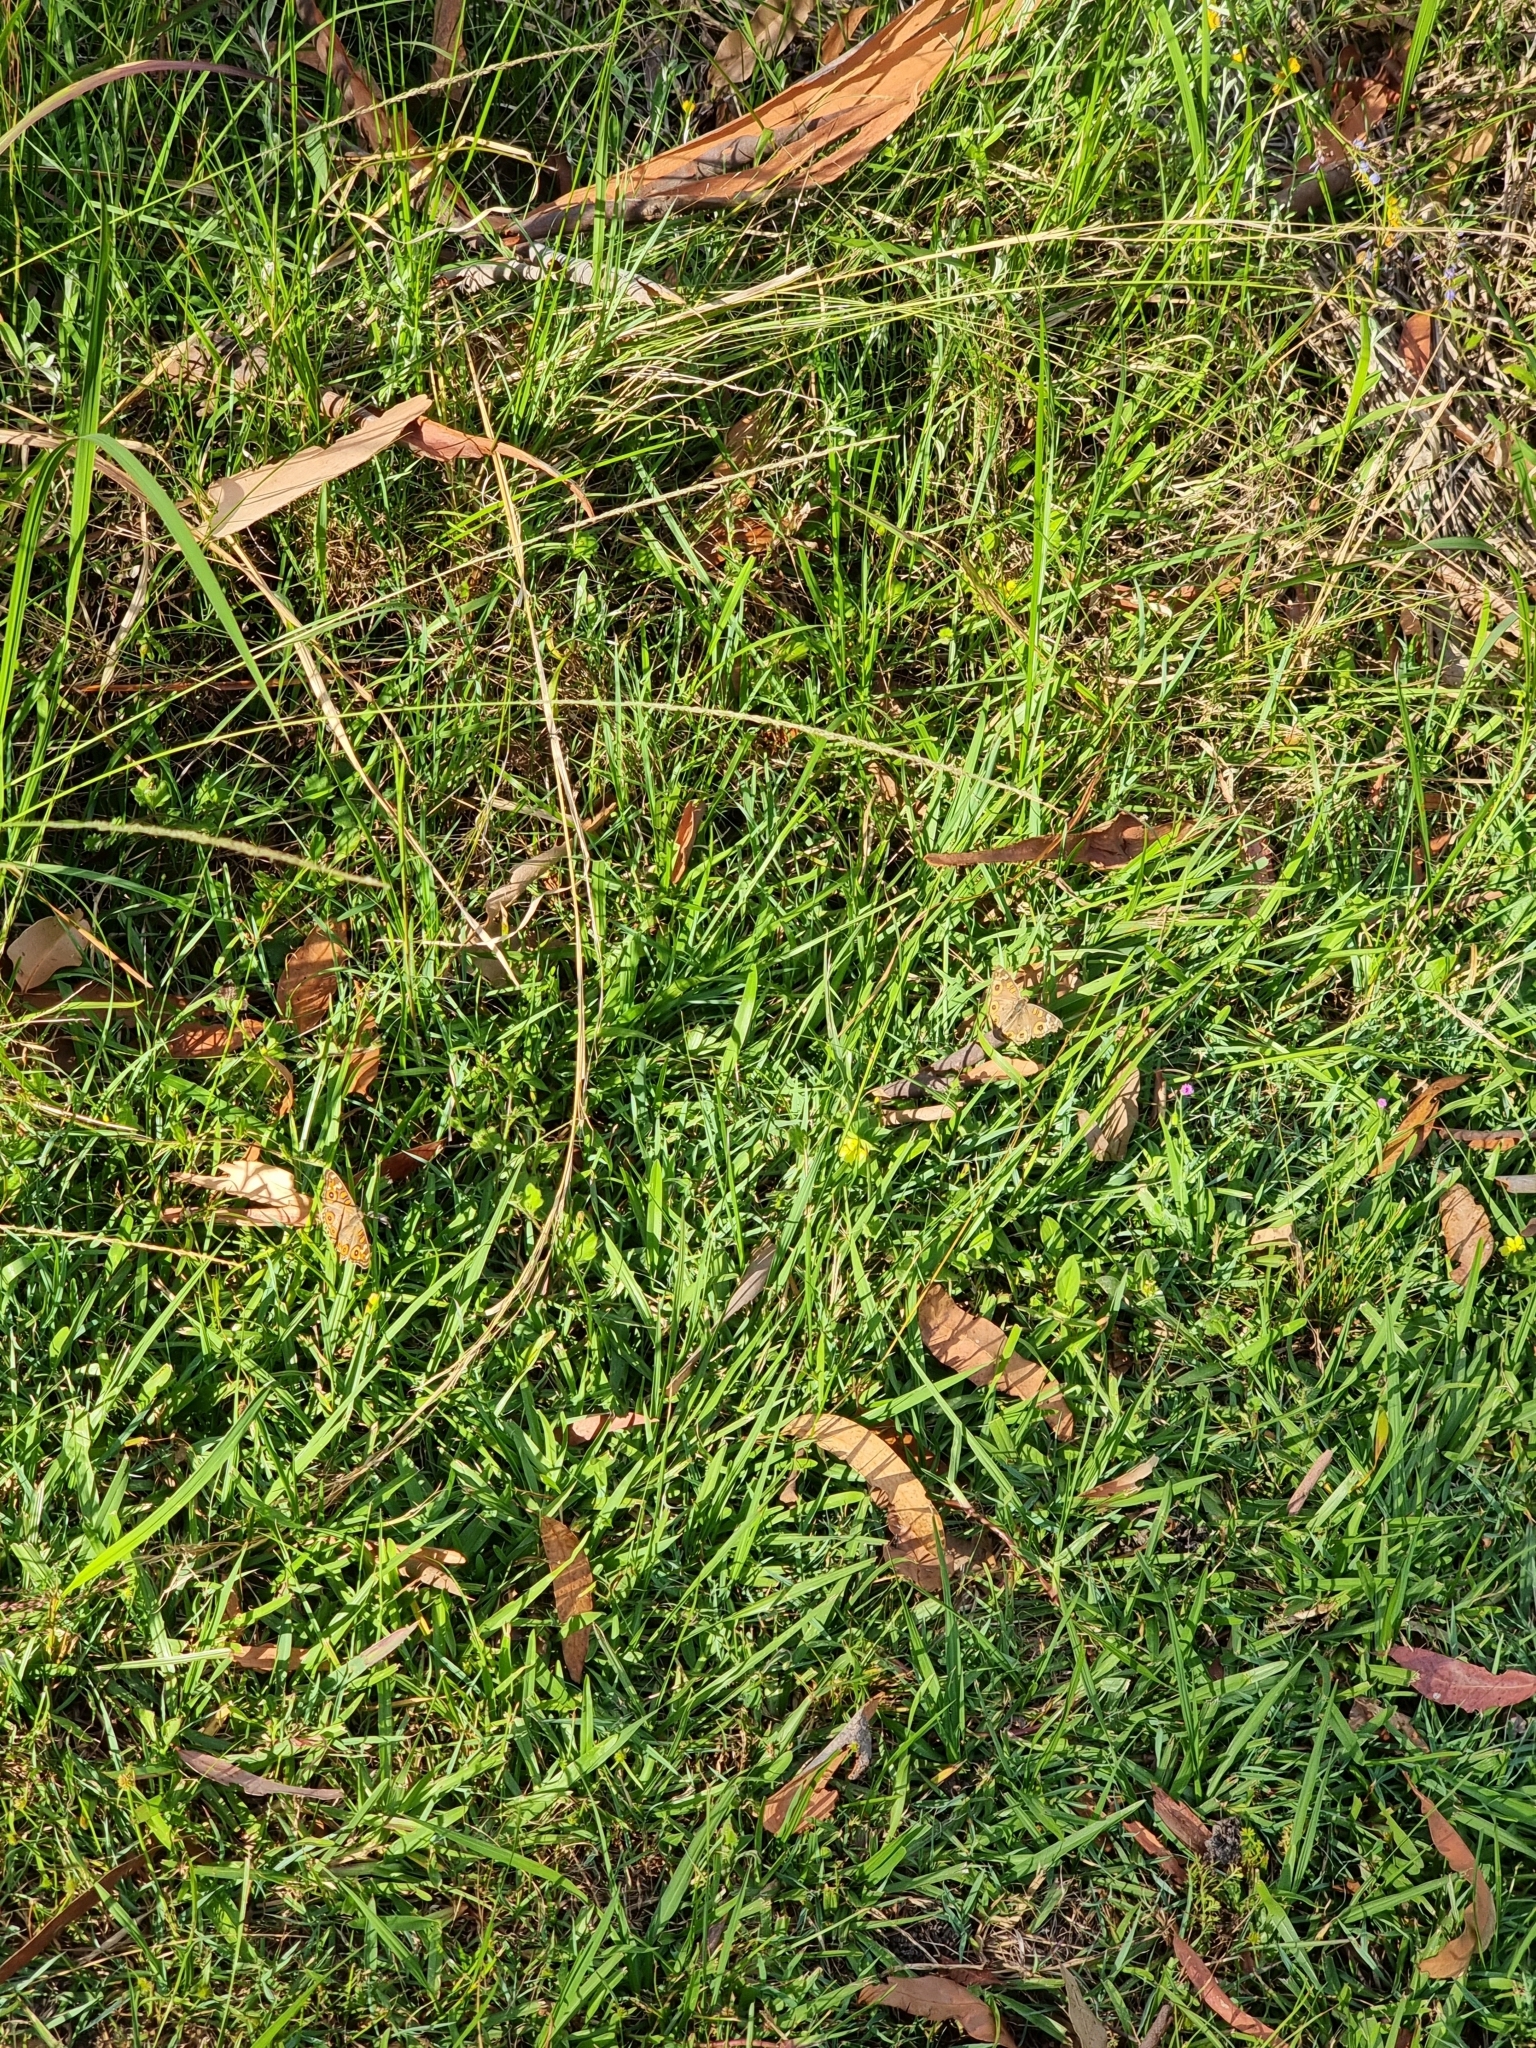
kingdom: Animalia
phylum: Arthropoda
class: Insecta
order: Lepidoptera
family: Nymphalidae
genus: Junonia
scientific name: Junonia villida
